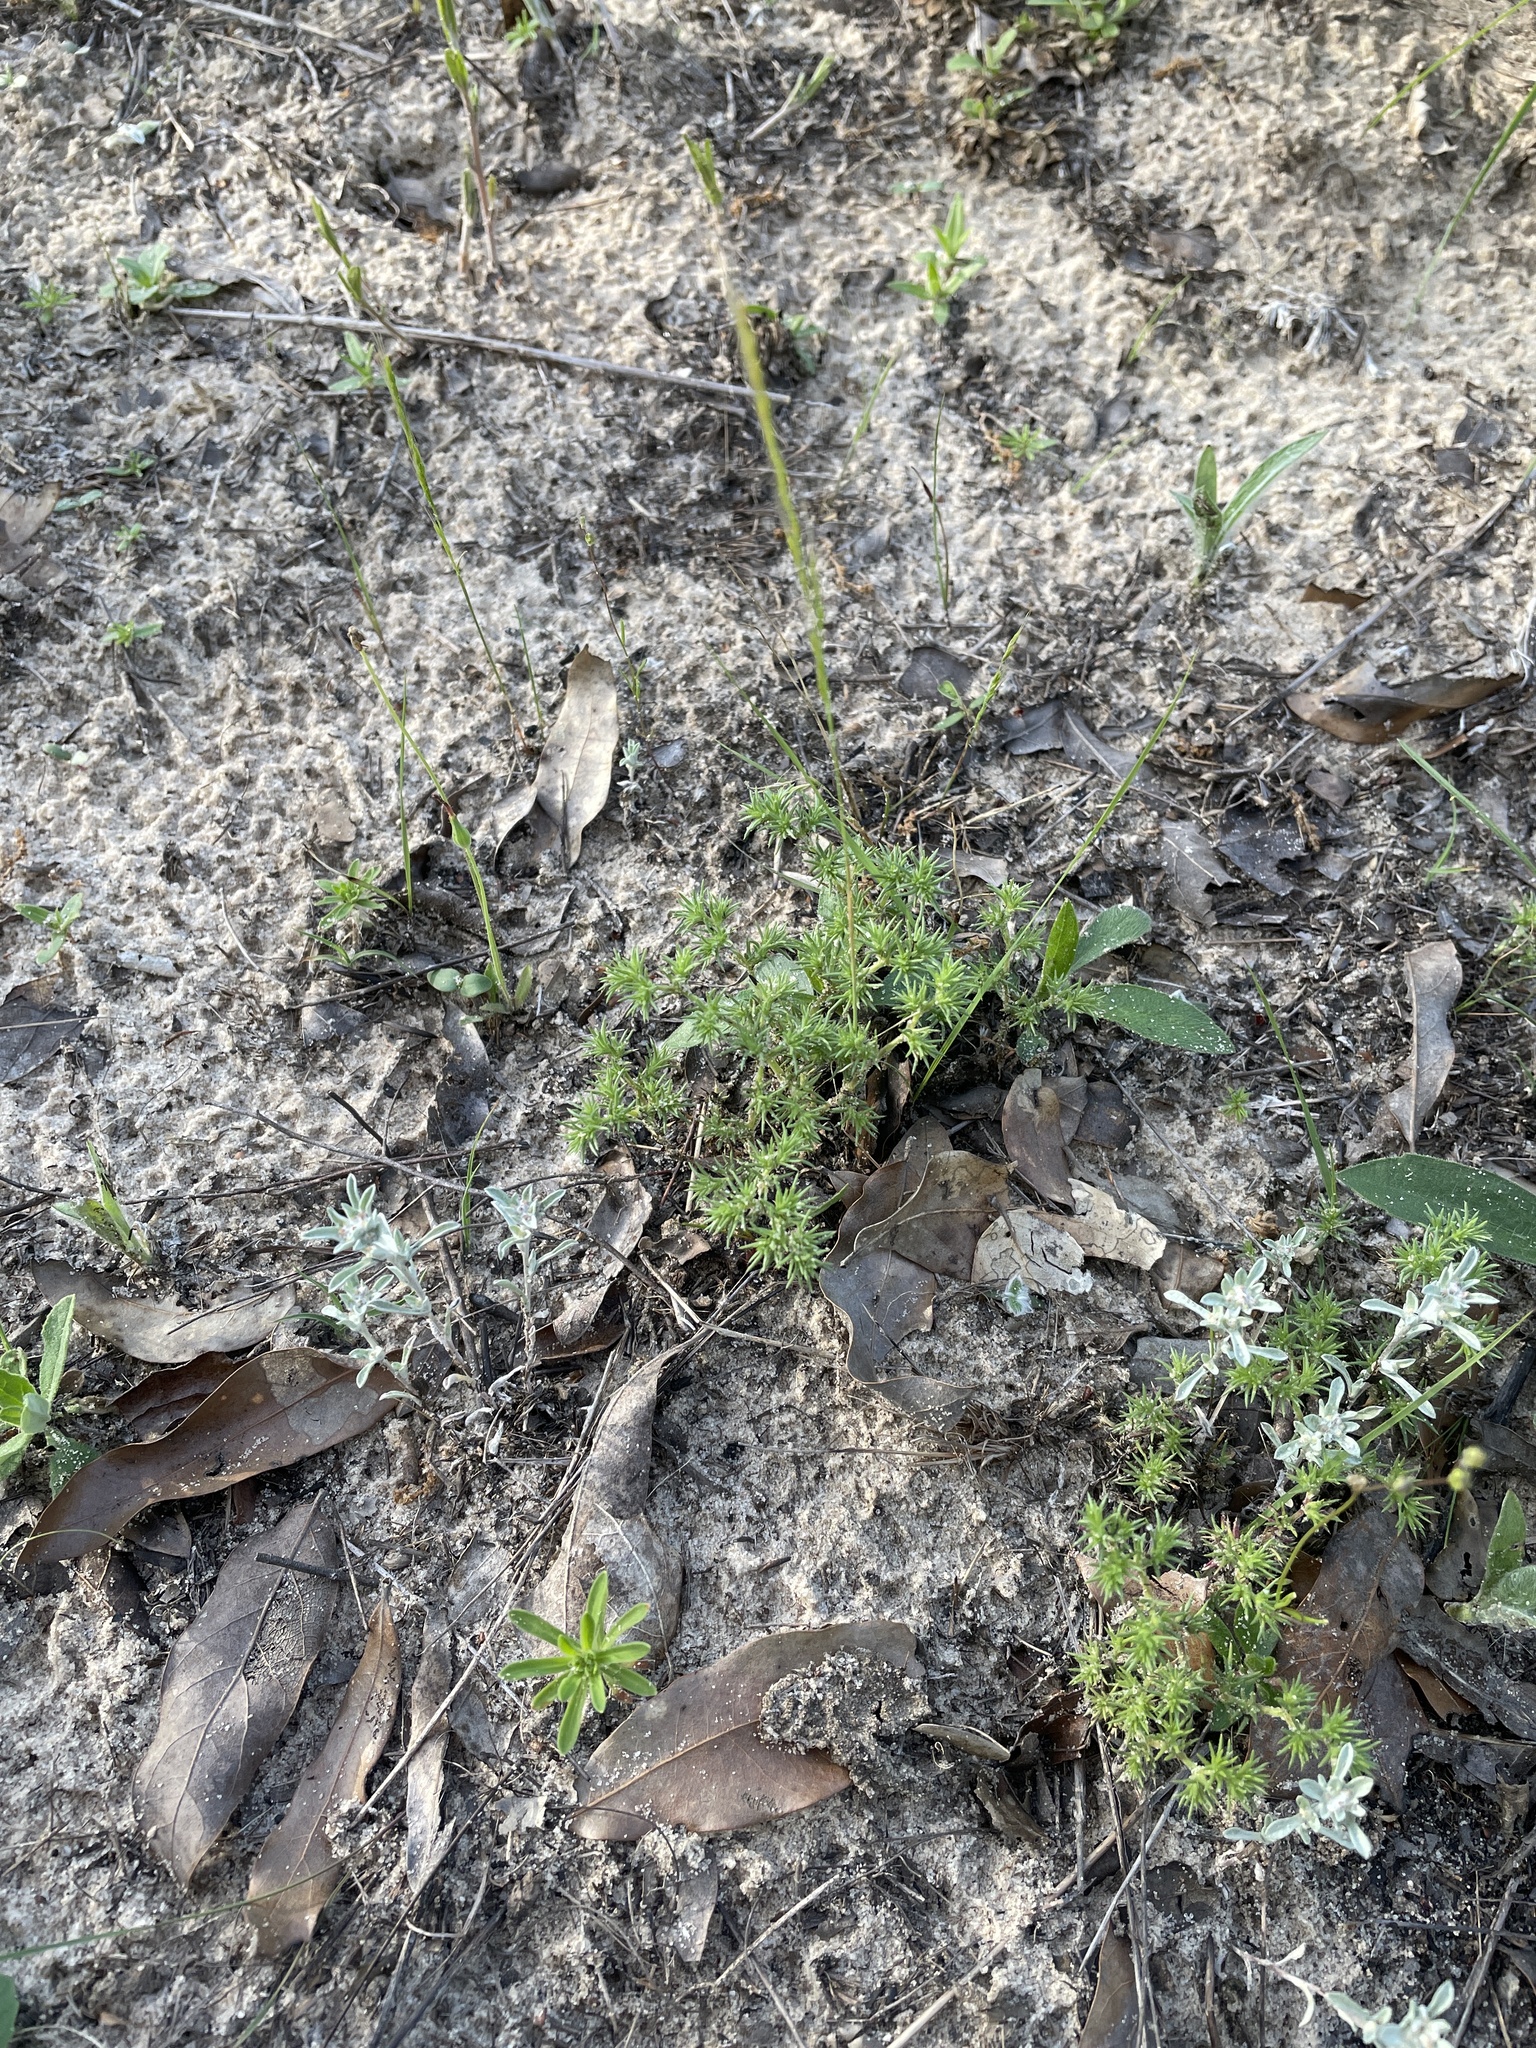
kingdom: Plantae
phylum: Tracheophyta
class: Magnoliopsida
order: Caryophyllales
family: Caryophyllaceae
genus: Loeflingia
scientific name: Loeflingia squarrosa
